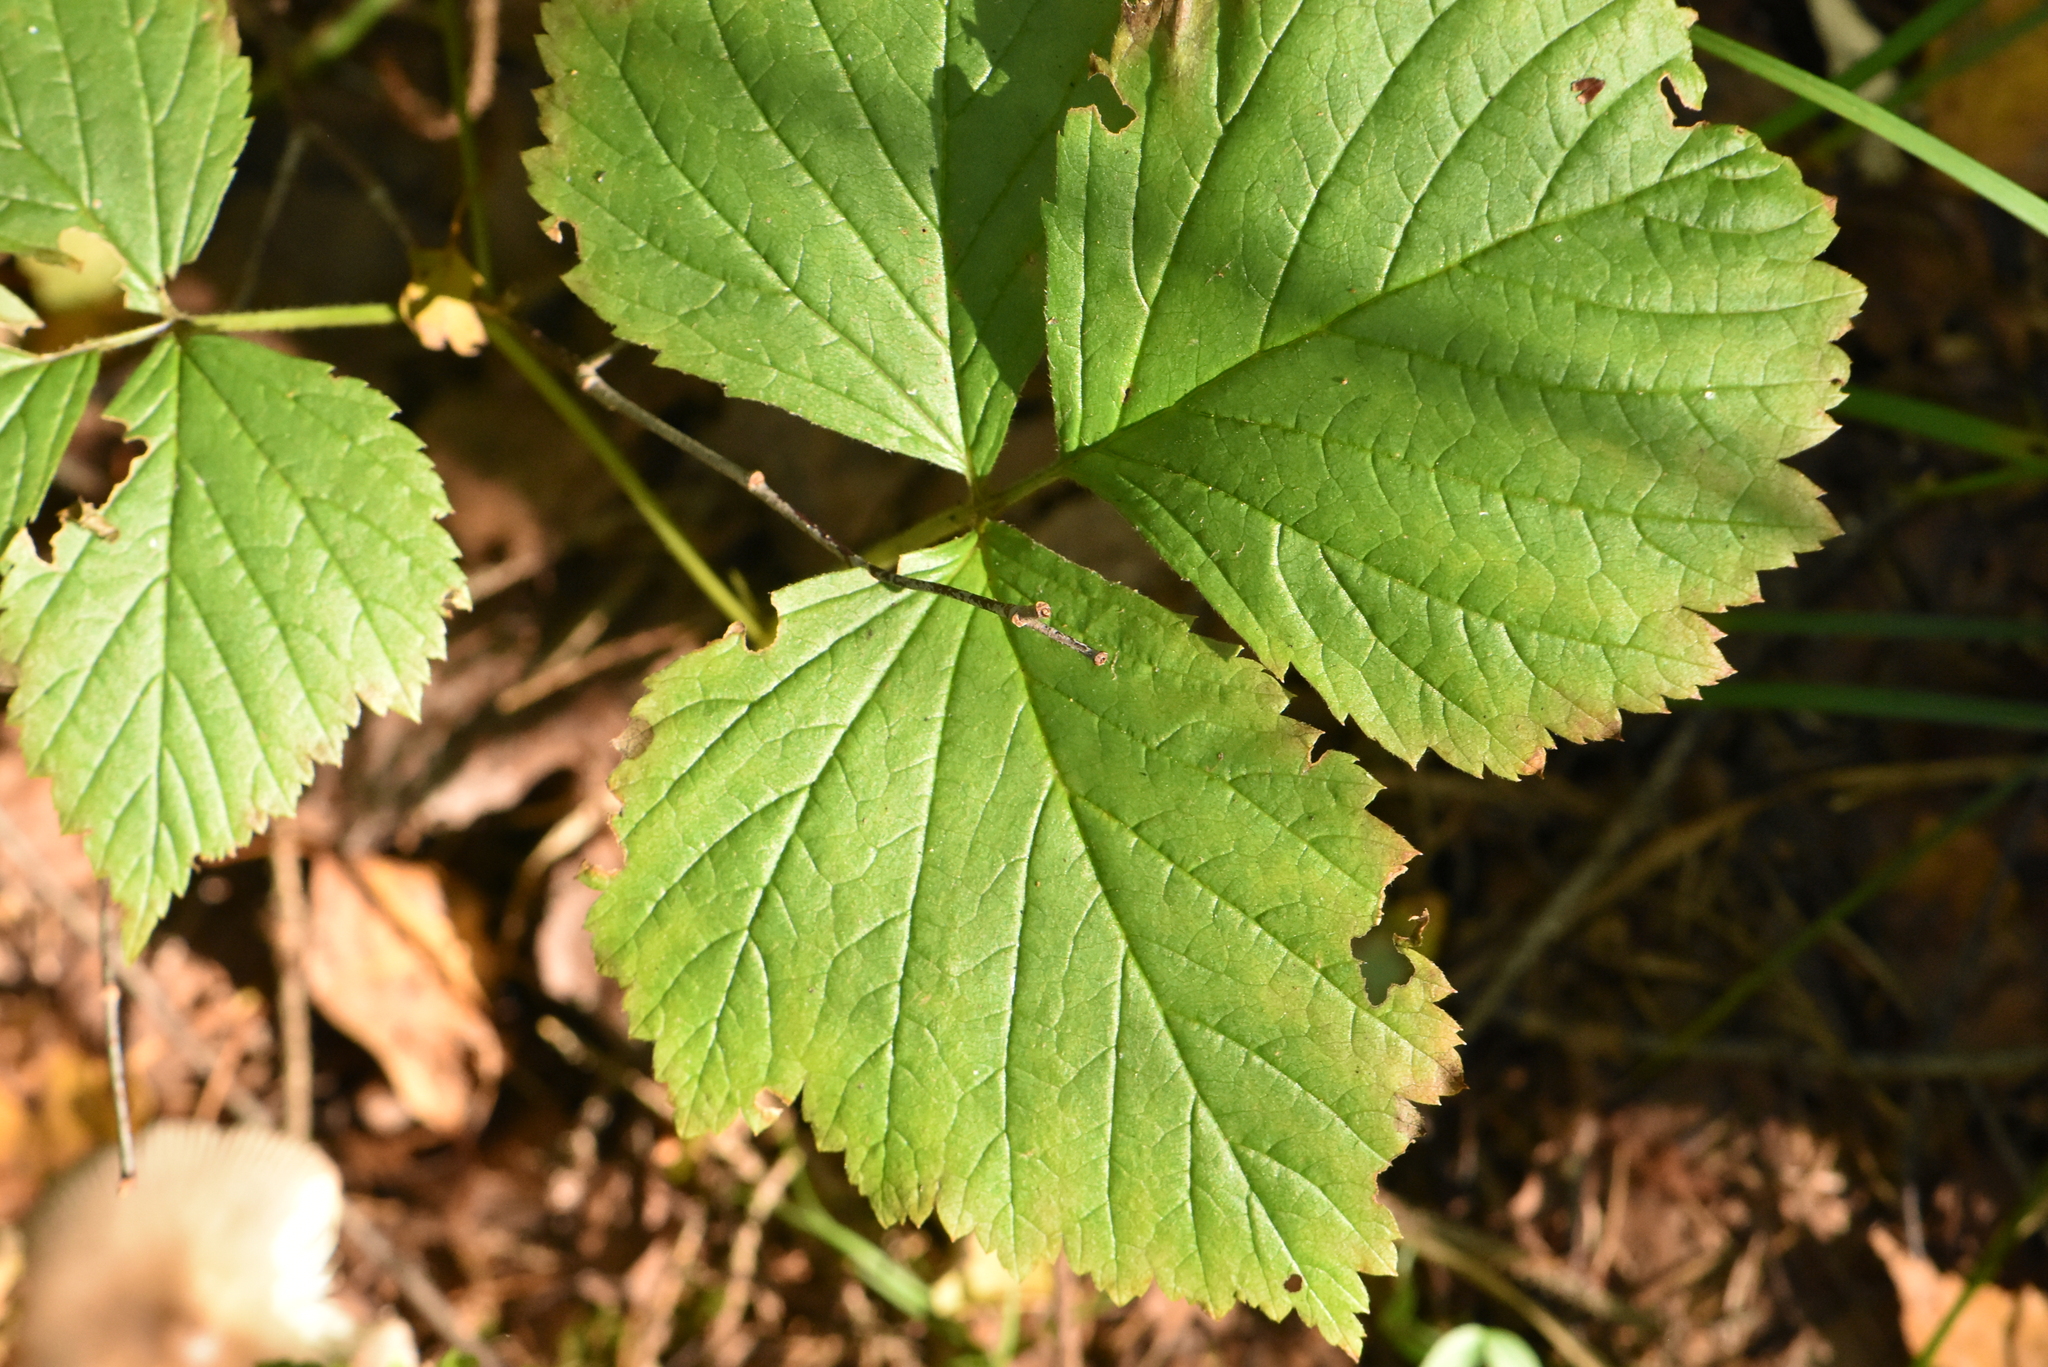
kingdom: Plantae
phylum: Tracheophyta
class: Magnoliopsida
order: Rosales
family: Rosaceae
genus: Rubus
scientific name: Rubus saxatilis
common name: Stone bramble
